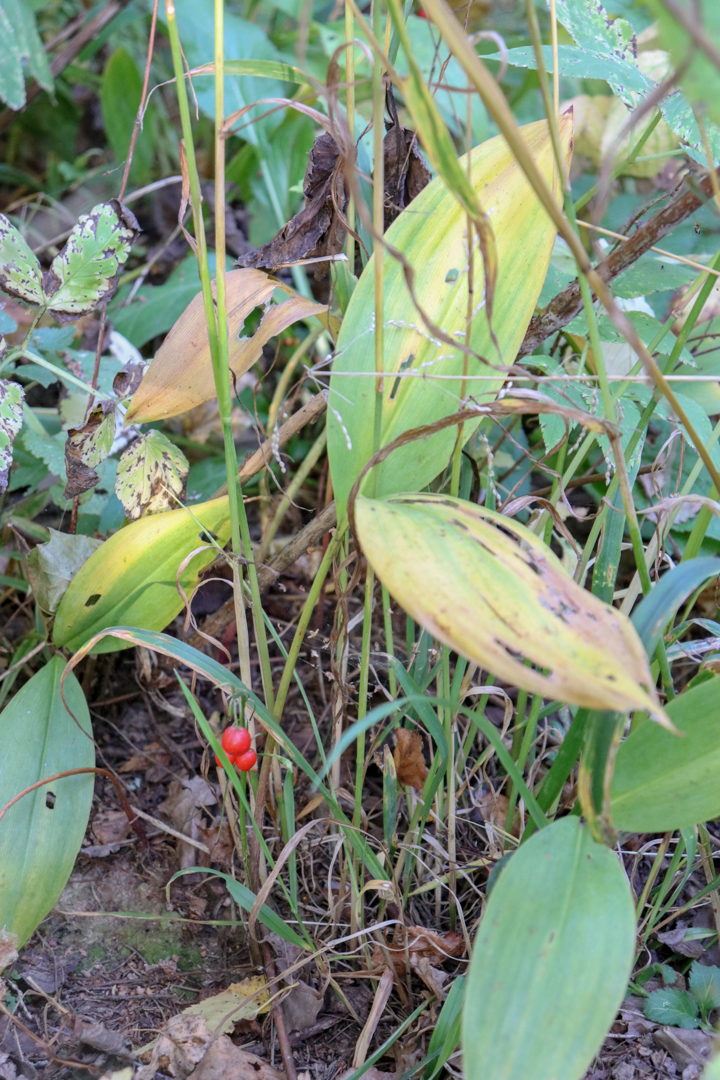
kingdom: Plantae
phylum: Tracheophyta
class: Liliopsida
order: Asparagales
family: Asparagaceae
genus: Convallaria
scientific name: Convallaria majalis
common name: Lily-of-the-valley
